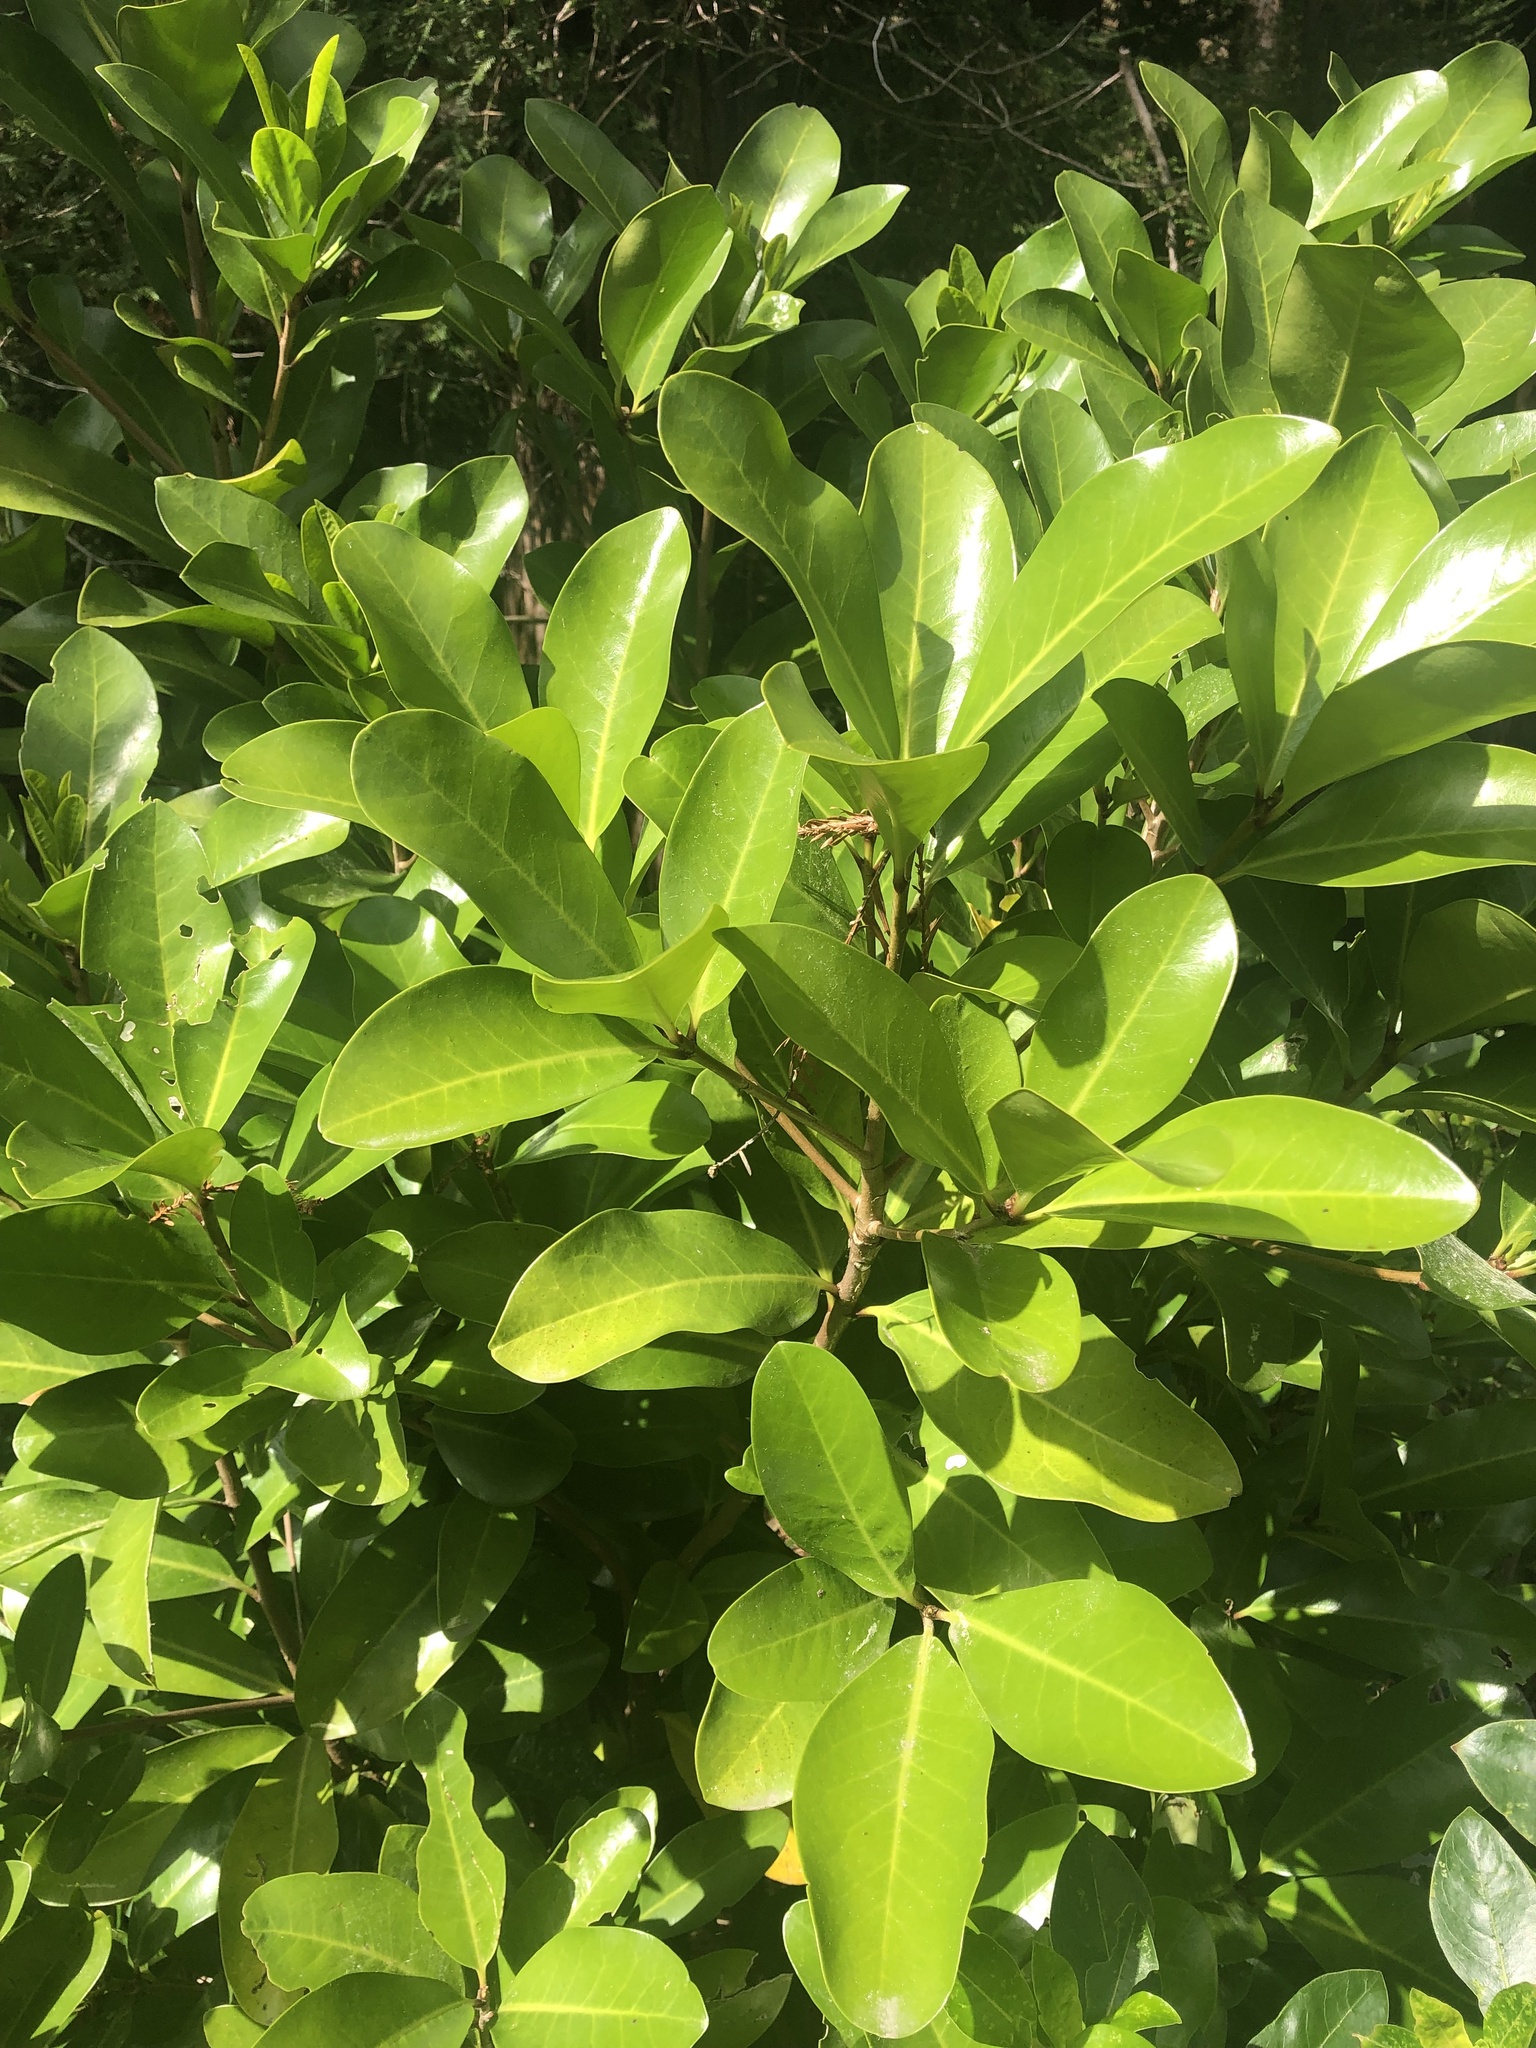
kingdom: Plantae
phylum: Tracheophyta
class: Magnoliopsida
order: Cucurbitales
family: Corynocarpaceae
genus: Corynocarpus
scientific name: Corynocarpus laevigatus
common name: New zealand laurel
